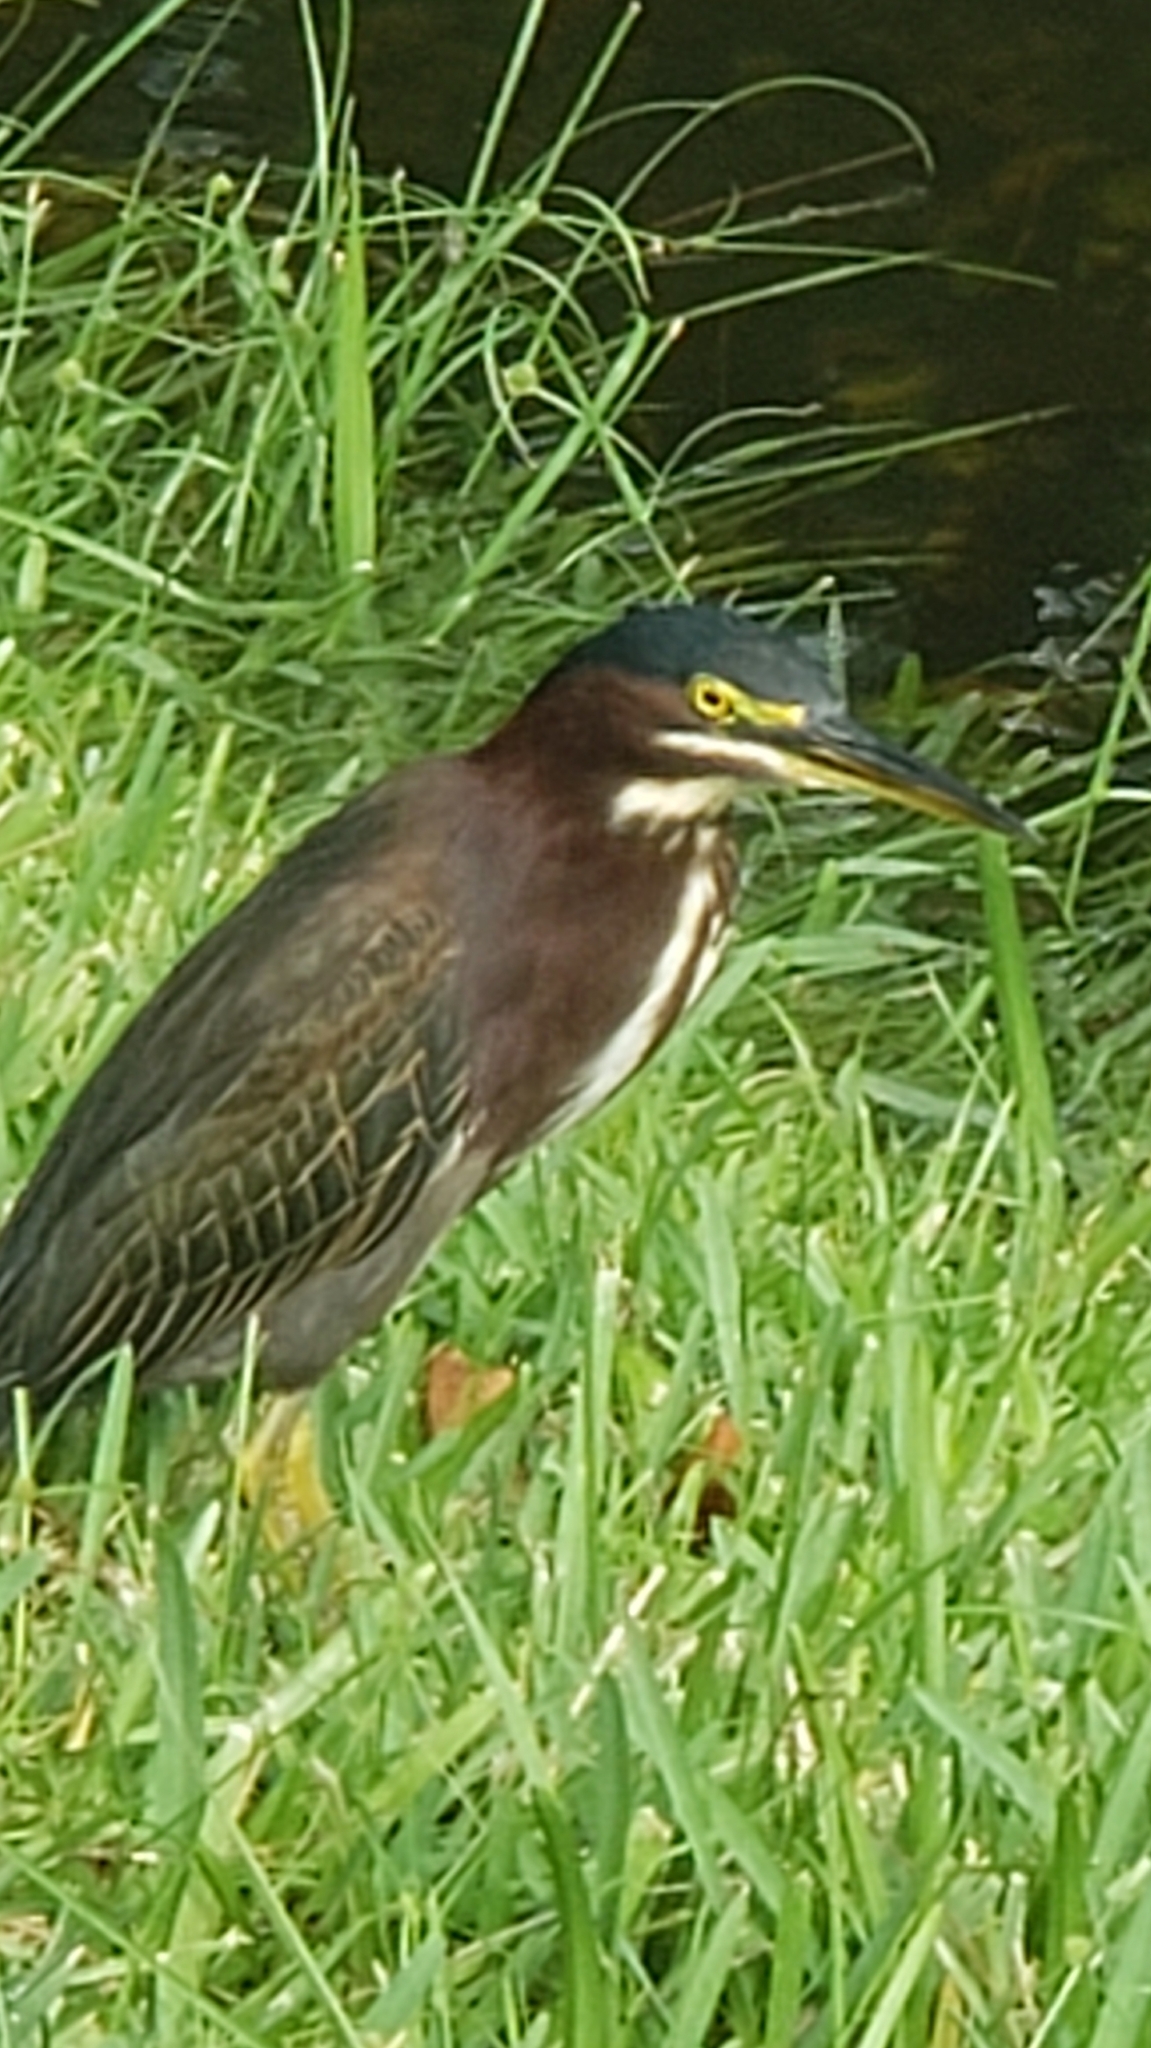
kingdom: Animalia
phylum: Chordata
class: Aves
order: Pelecaniformes
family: Ardeidae
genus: Butorides
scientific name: Butorides virescens
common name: Green heron
